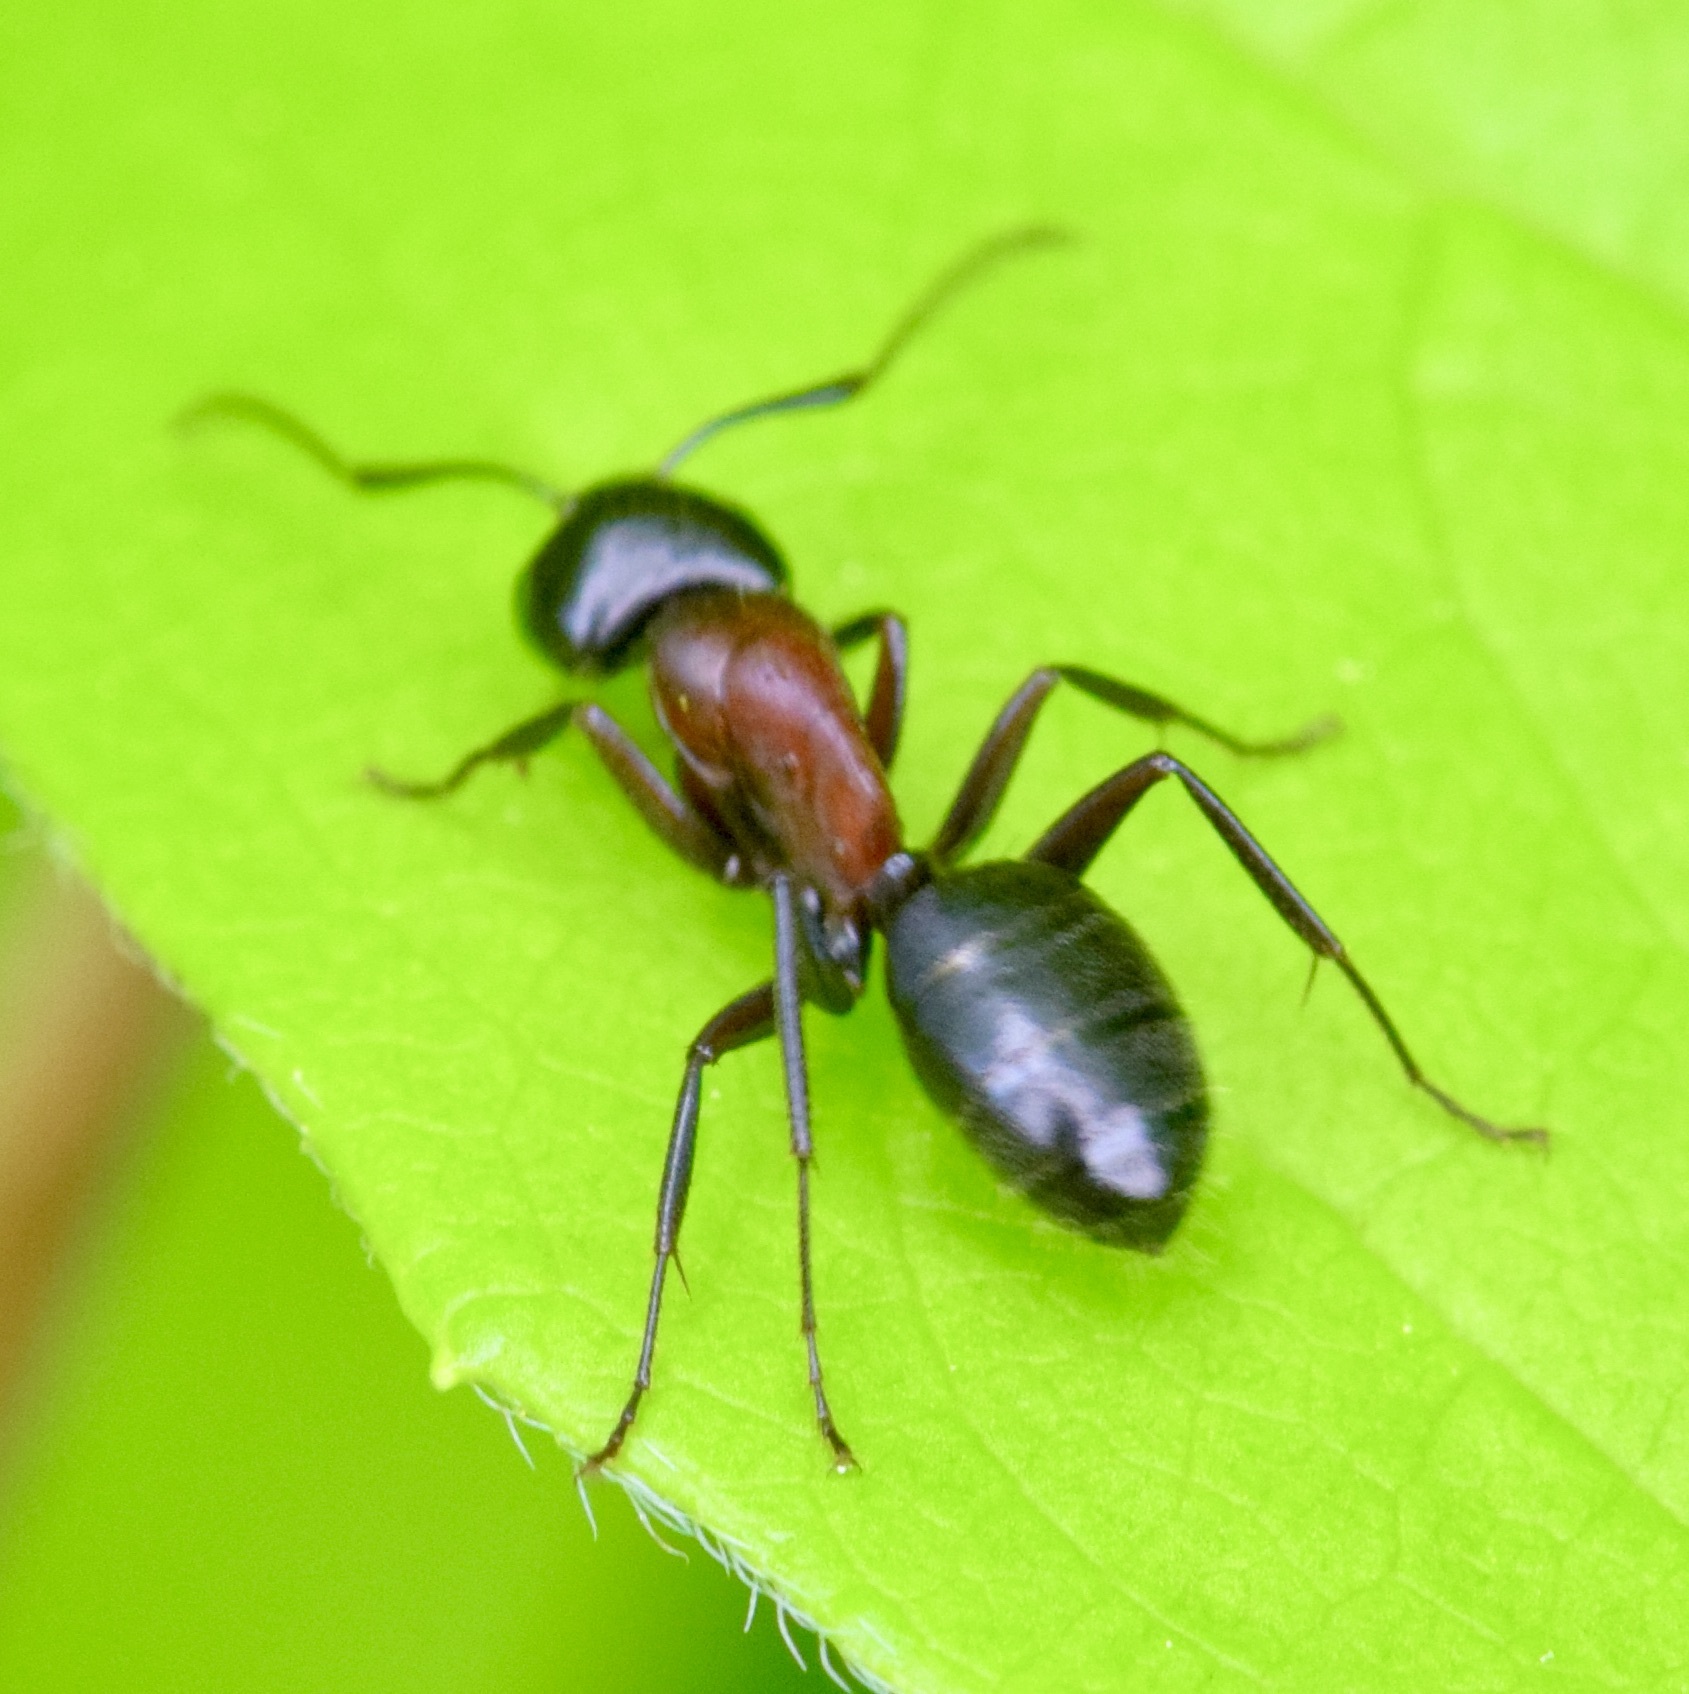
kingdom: Animalia
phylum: Arthropoda
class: Insecta
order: Hymenoptera
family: Formicidae
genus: Camponotus
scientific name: Camponotus novaeboracensis
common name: New york carpenter ant
